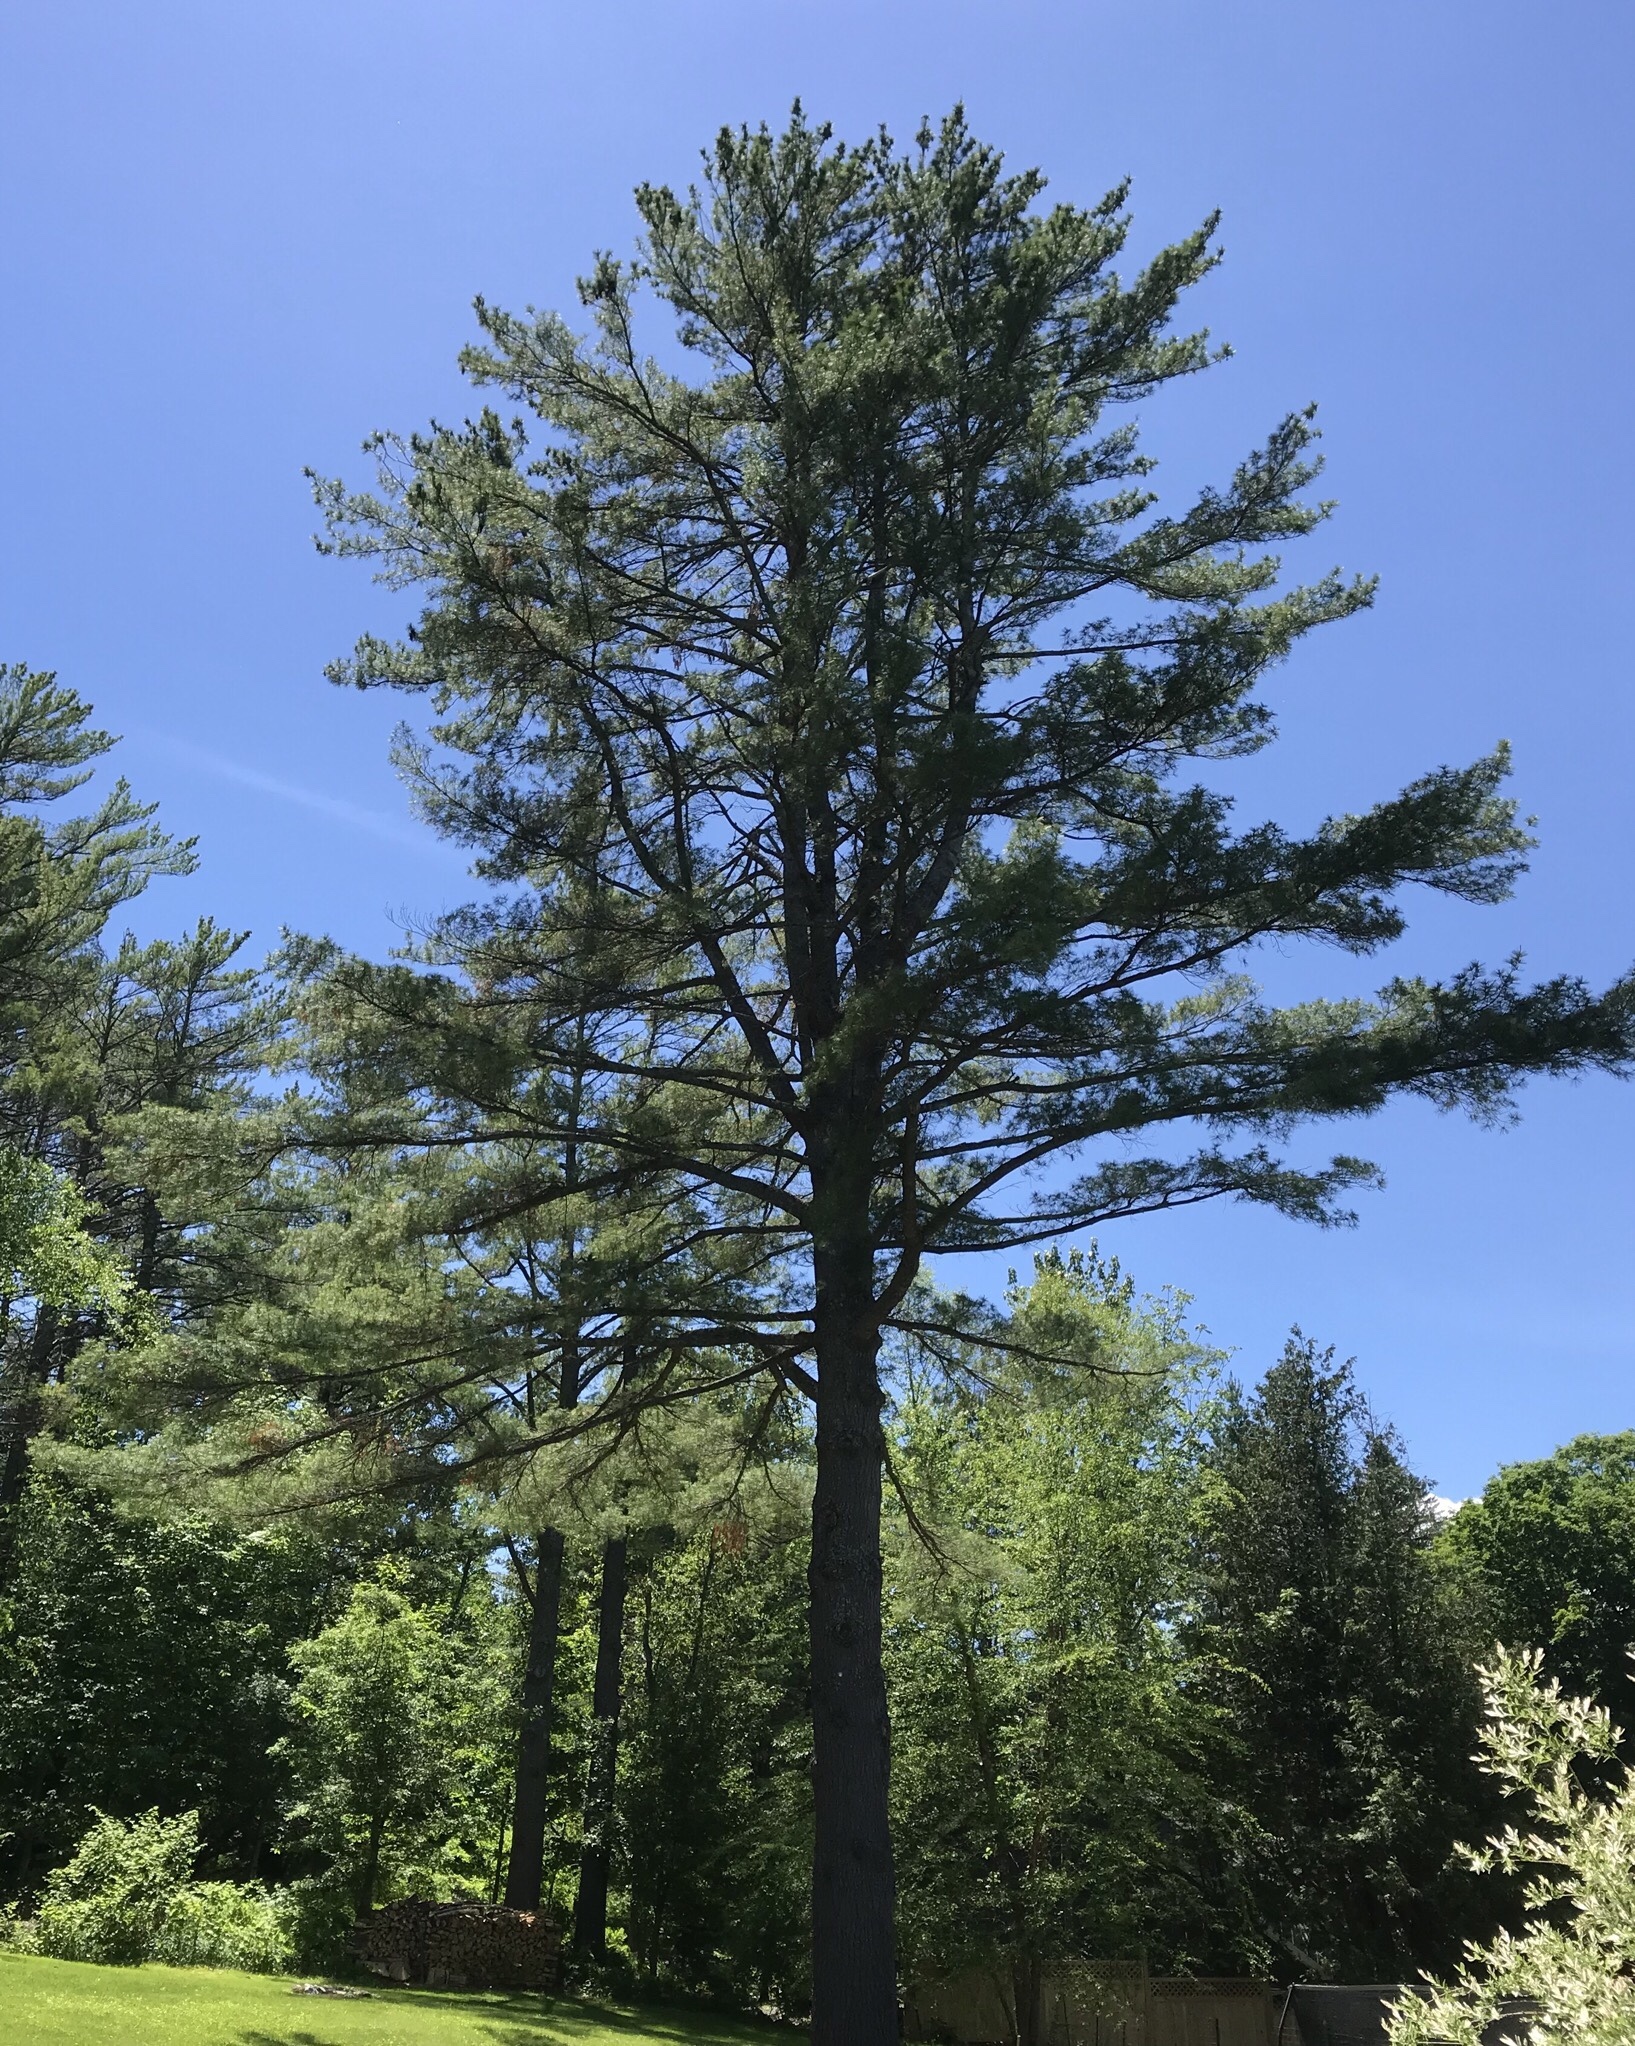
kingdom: Plantae
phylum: Tracheophyta
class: Pinopsida
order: Pinales
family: Pinaceae
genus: Pinus
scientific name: Pinus strobus
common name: Weymouth pine
